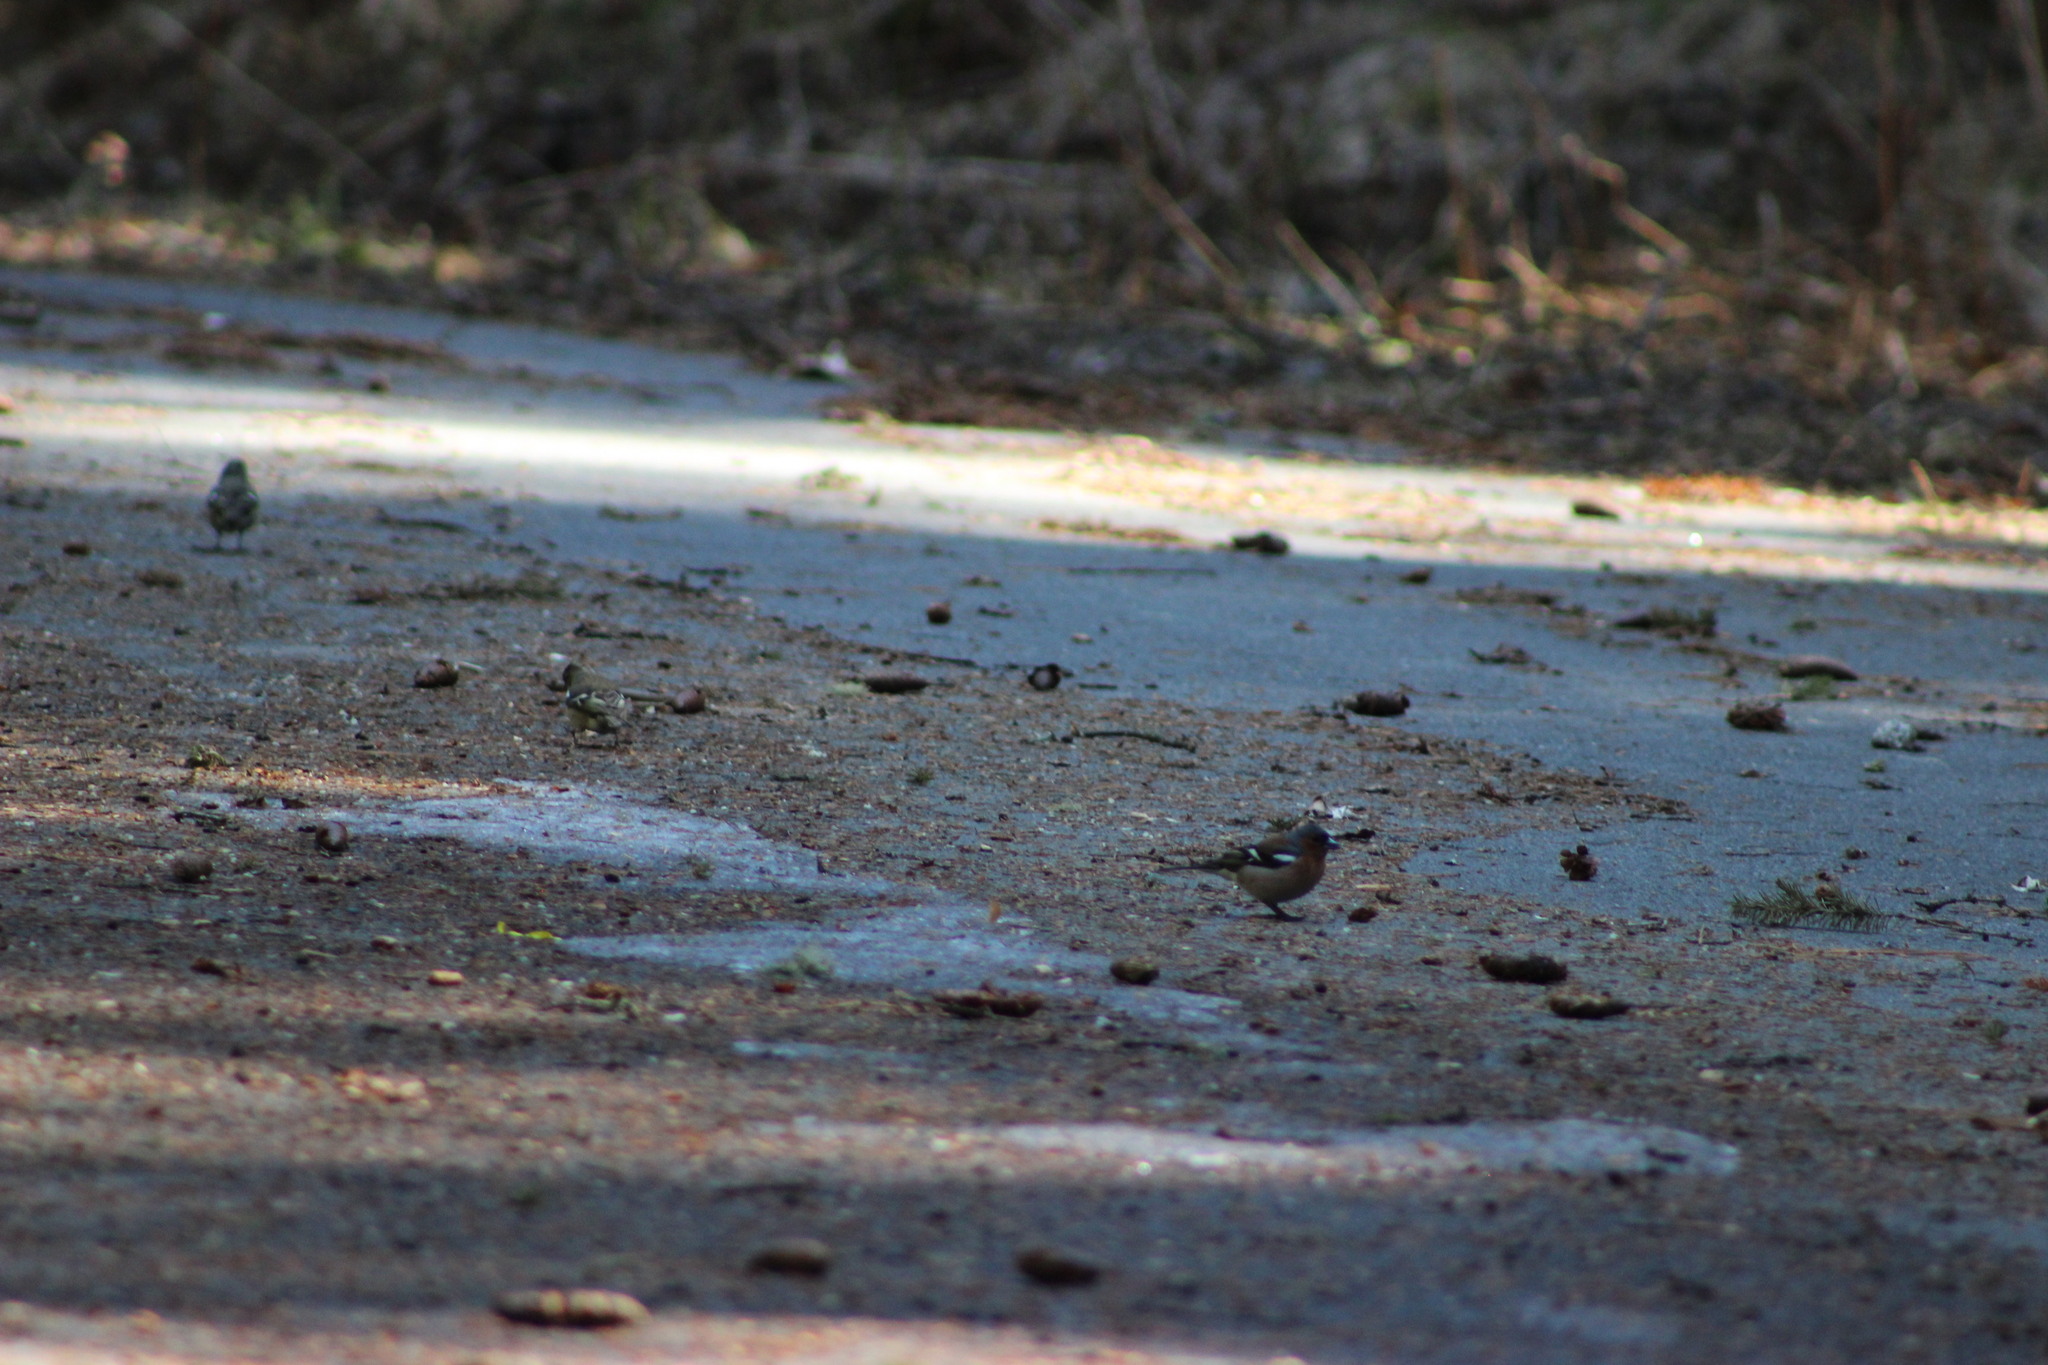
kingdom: Animalia
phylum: Chordata
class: Aves
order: Passeriformes
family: Fringillidae
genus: Fringilla
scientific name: Fringilla coelebs
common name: Common chaffinch
